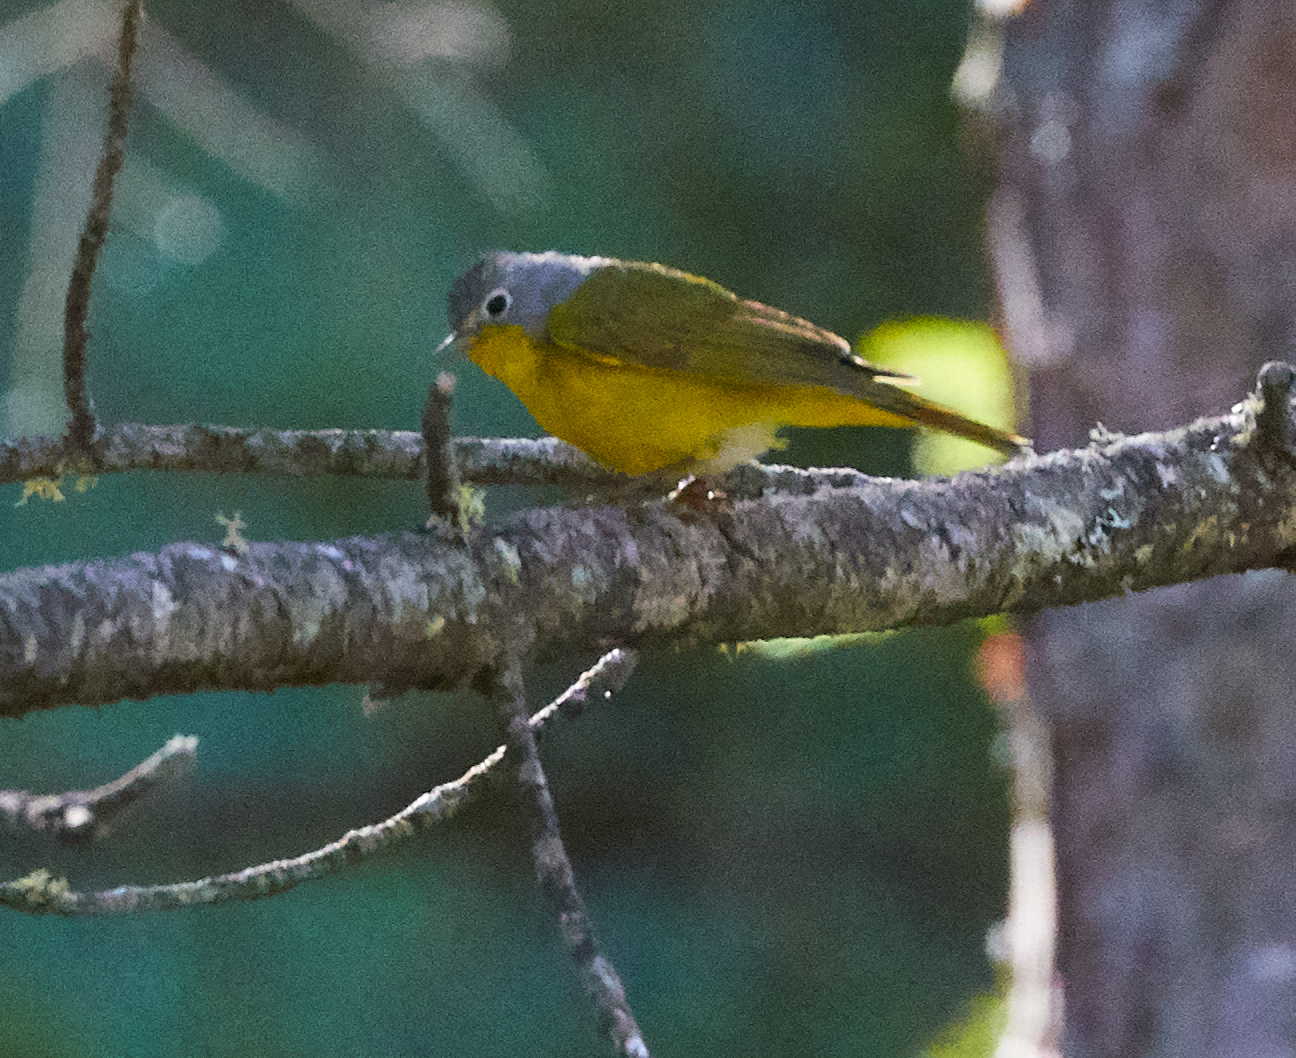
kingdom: Animalia
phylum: Chordata
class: Aves
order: Passeriformes
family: Parulidae
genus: Leiothlypis
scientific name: Leiothlypis ruficapilla
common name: Nashville warbler
